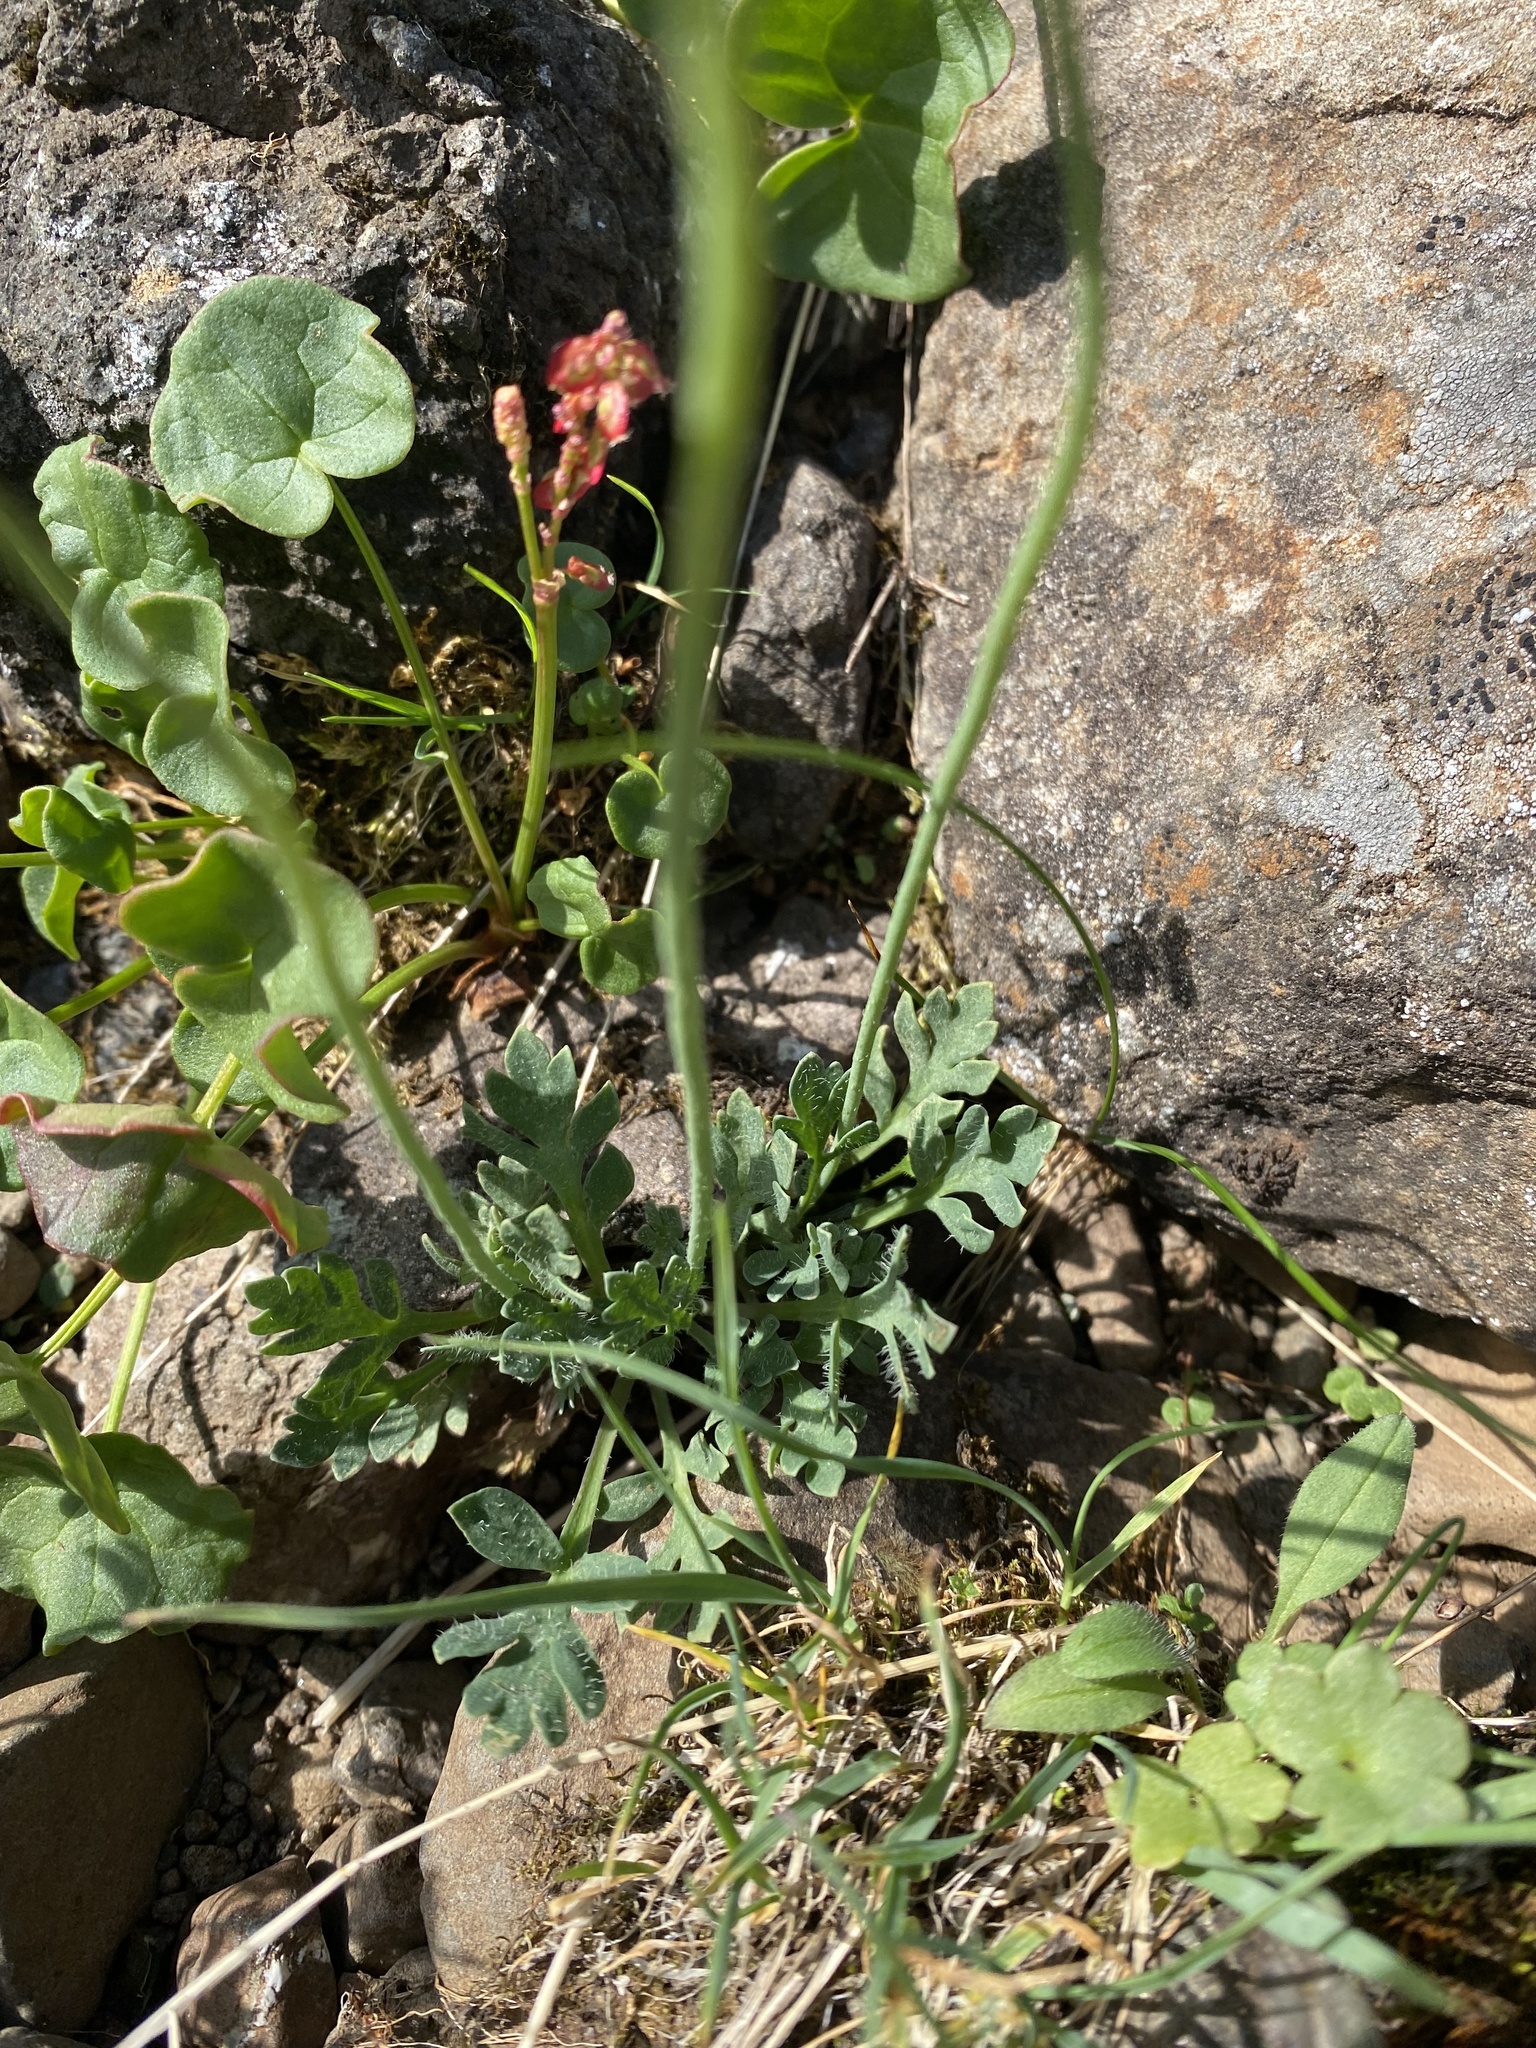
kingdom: Plantae
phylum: Tracheophyta
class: Magnoliopsida
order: Ranunculales
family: Papaveraceae
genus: Papaver
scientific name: Papaver pulvinatum
